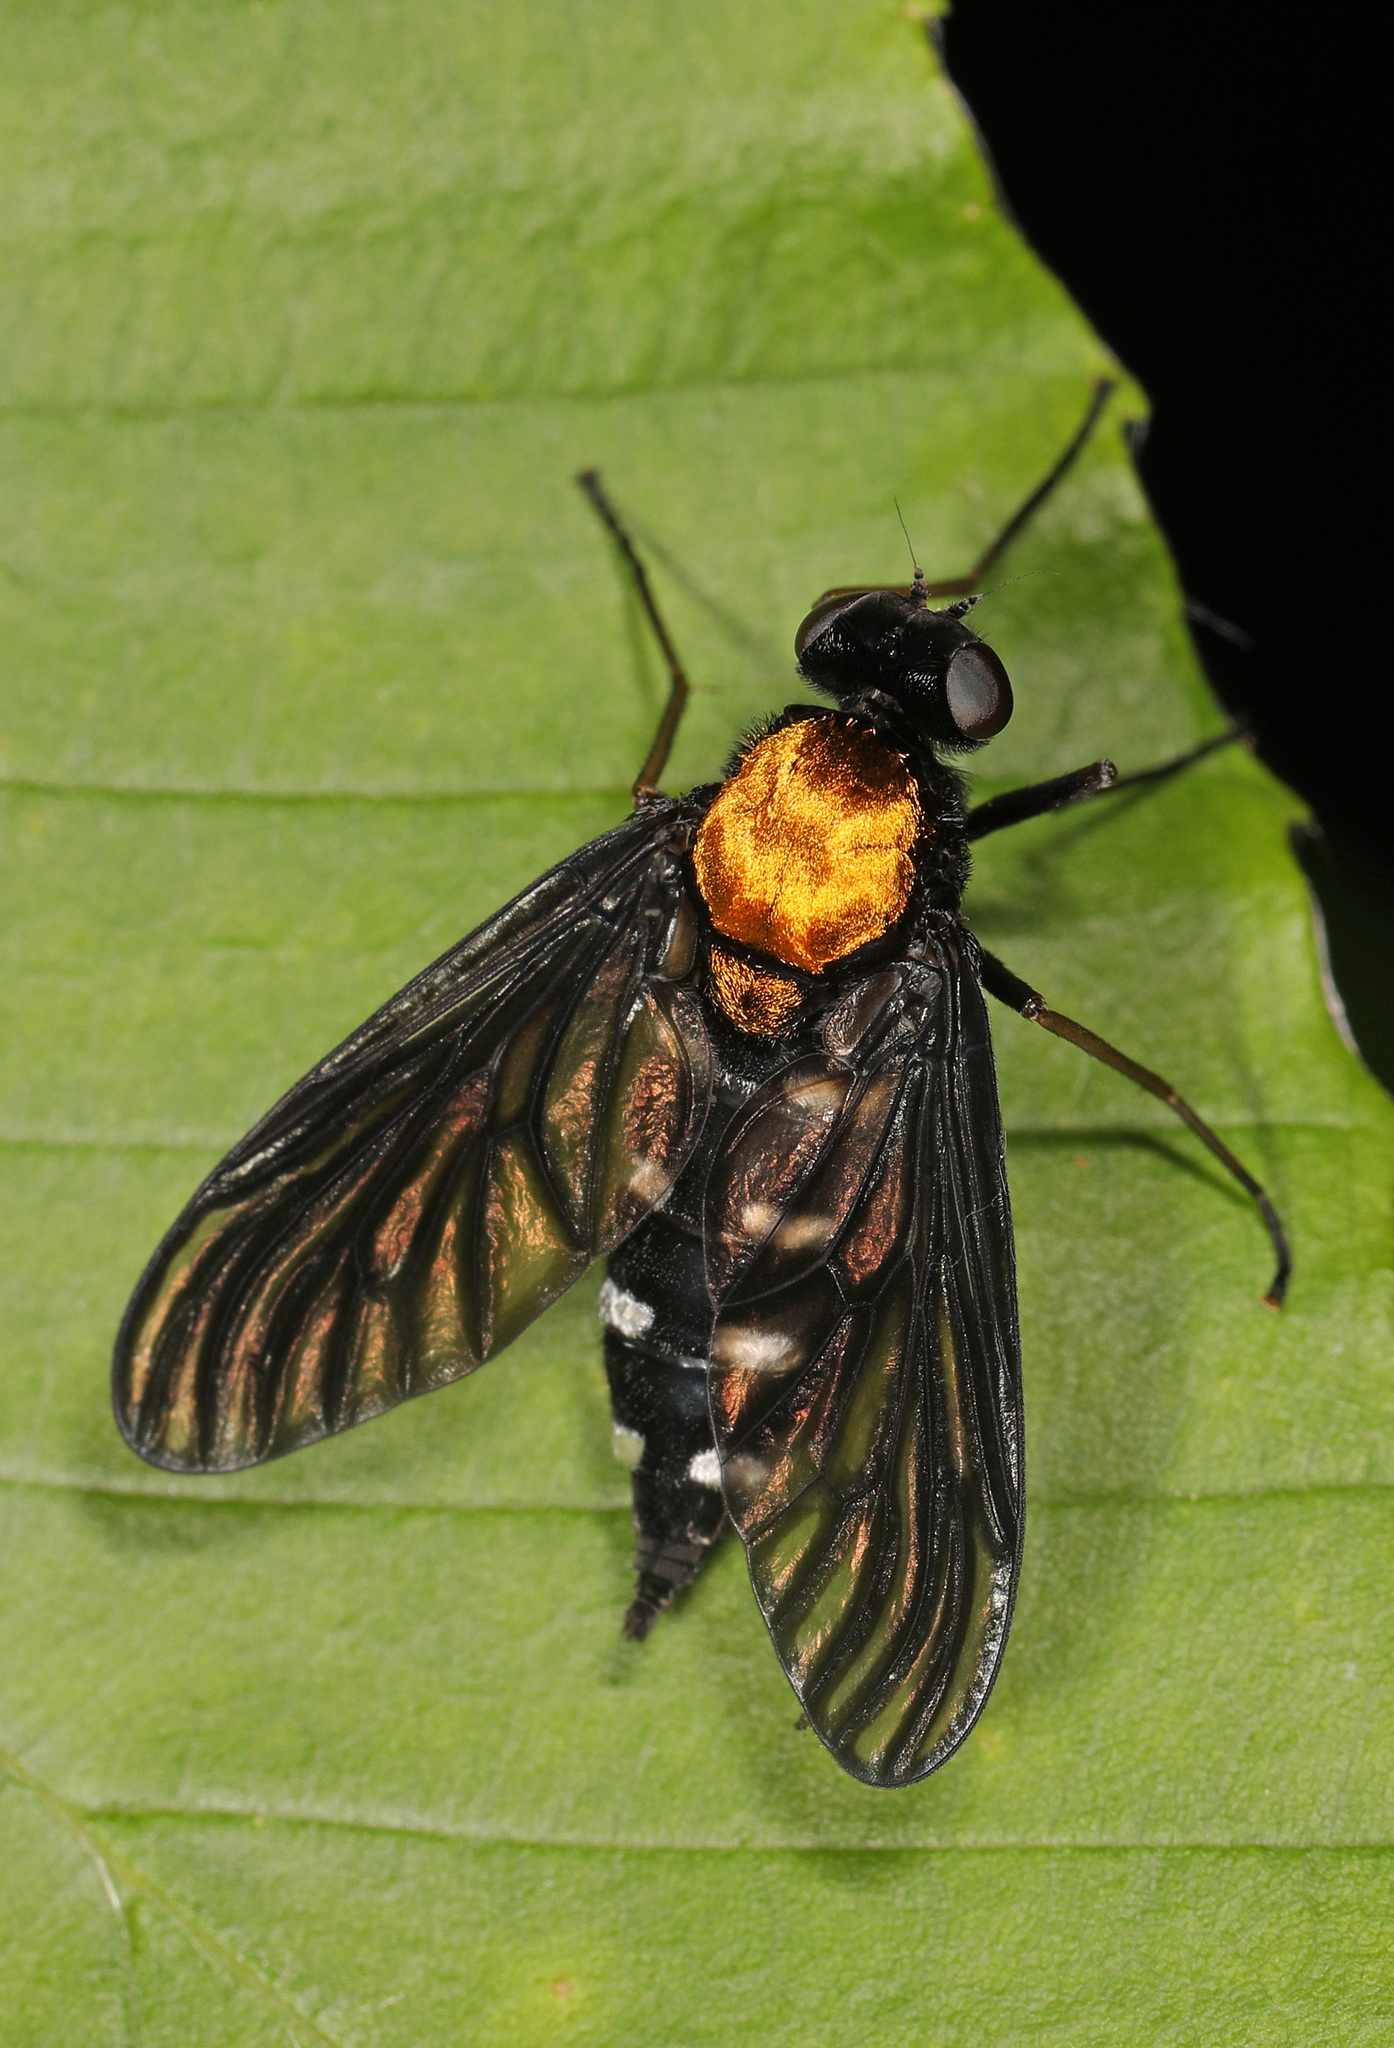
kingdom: Animalia
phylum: Arthropoda
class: Insecta
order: Diptera
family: Rhagionidae
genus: Chrysopilus
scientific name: Chrysopilus thoracicus
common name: Golden-backed snipe fly
